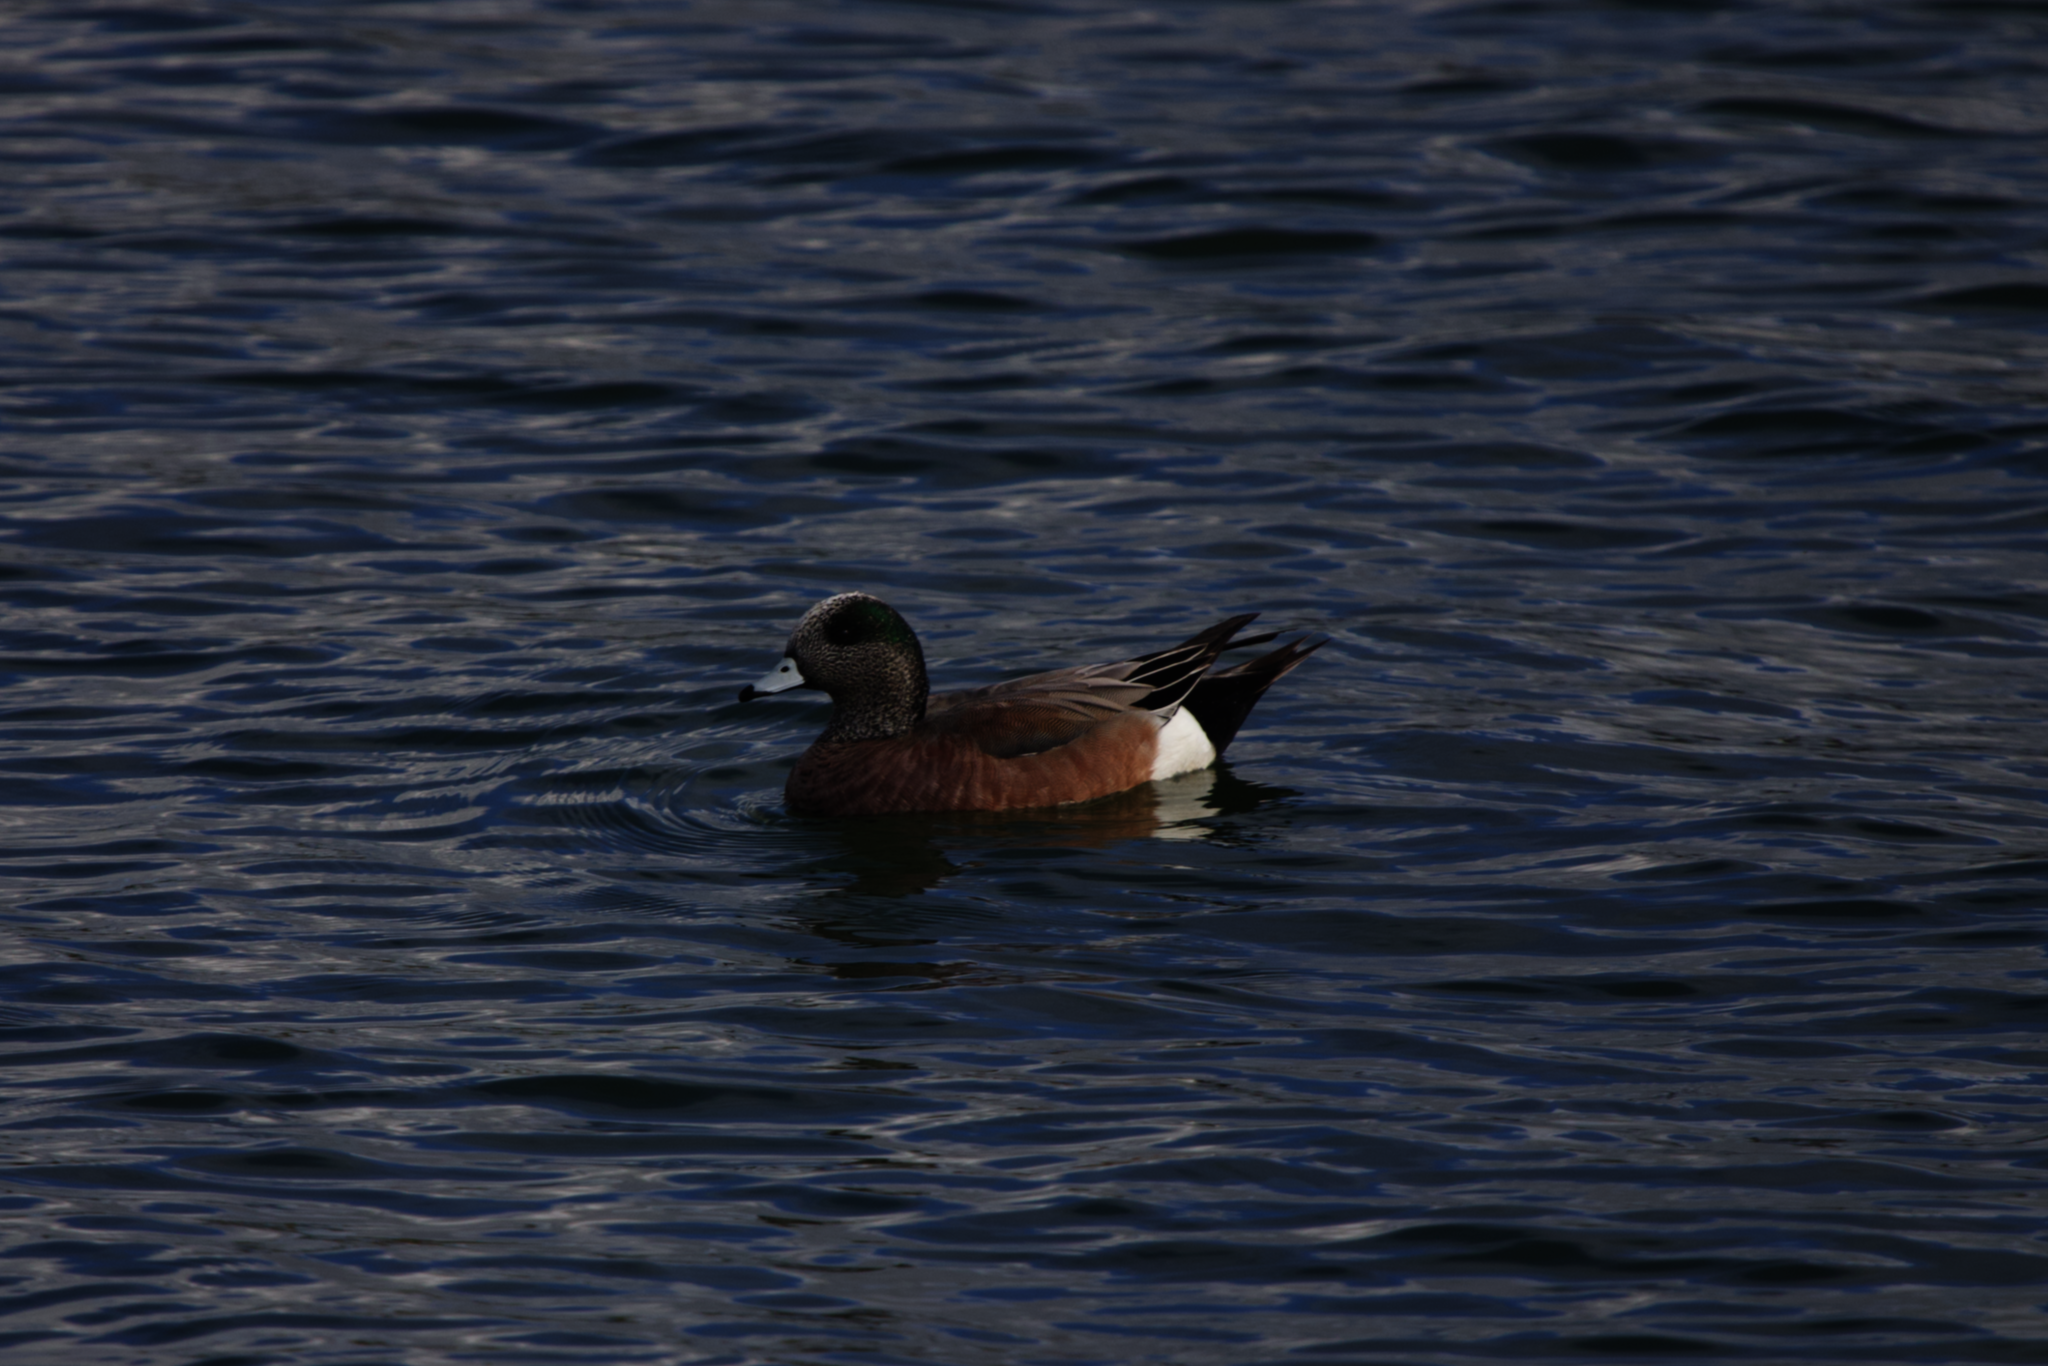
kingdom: Animalia
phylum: Chordata
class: Aves
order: Anseriformes
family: Anatidae
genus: Mareca
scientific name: Mareca americana
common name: American wigeon
